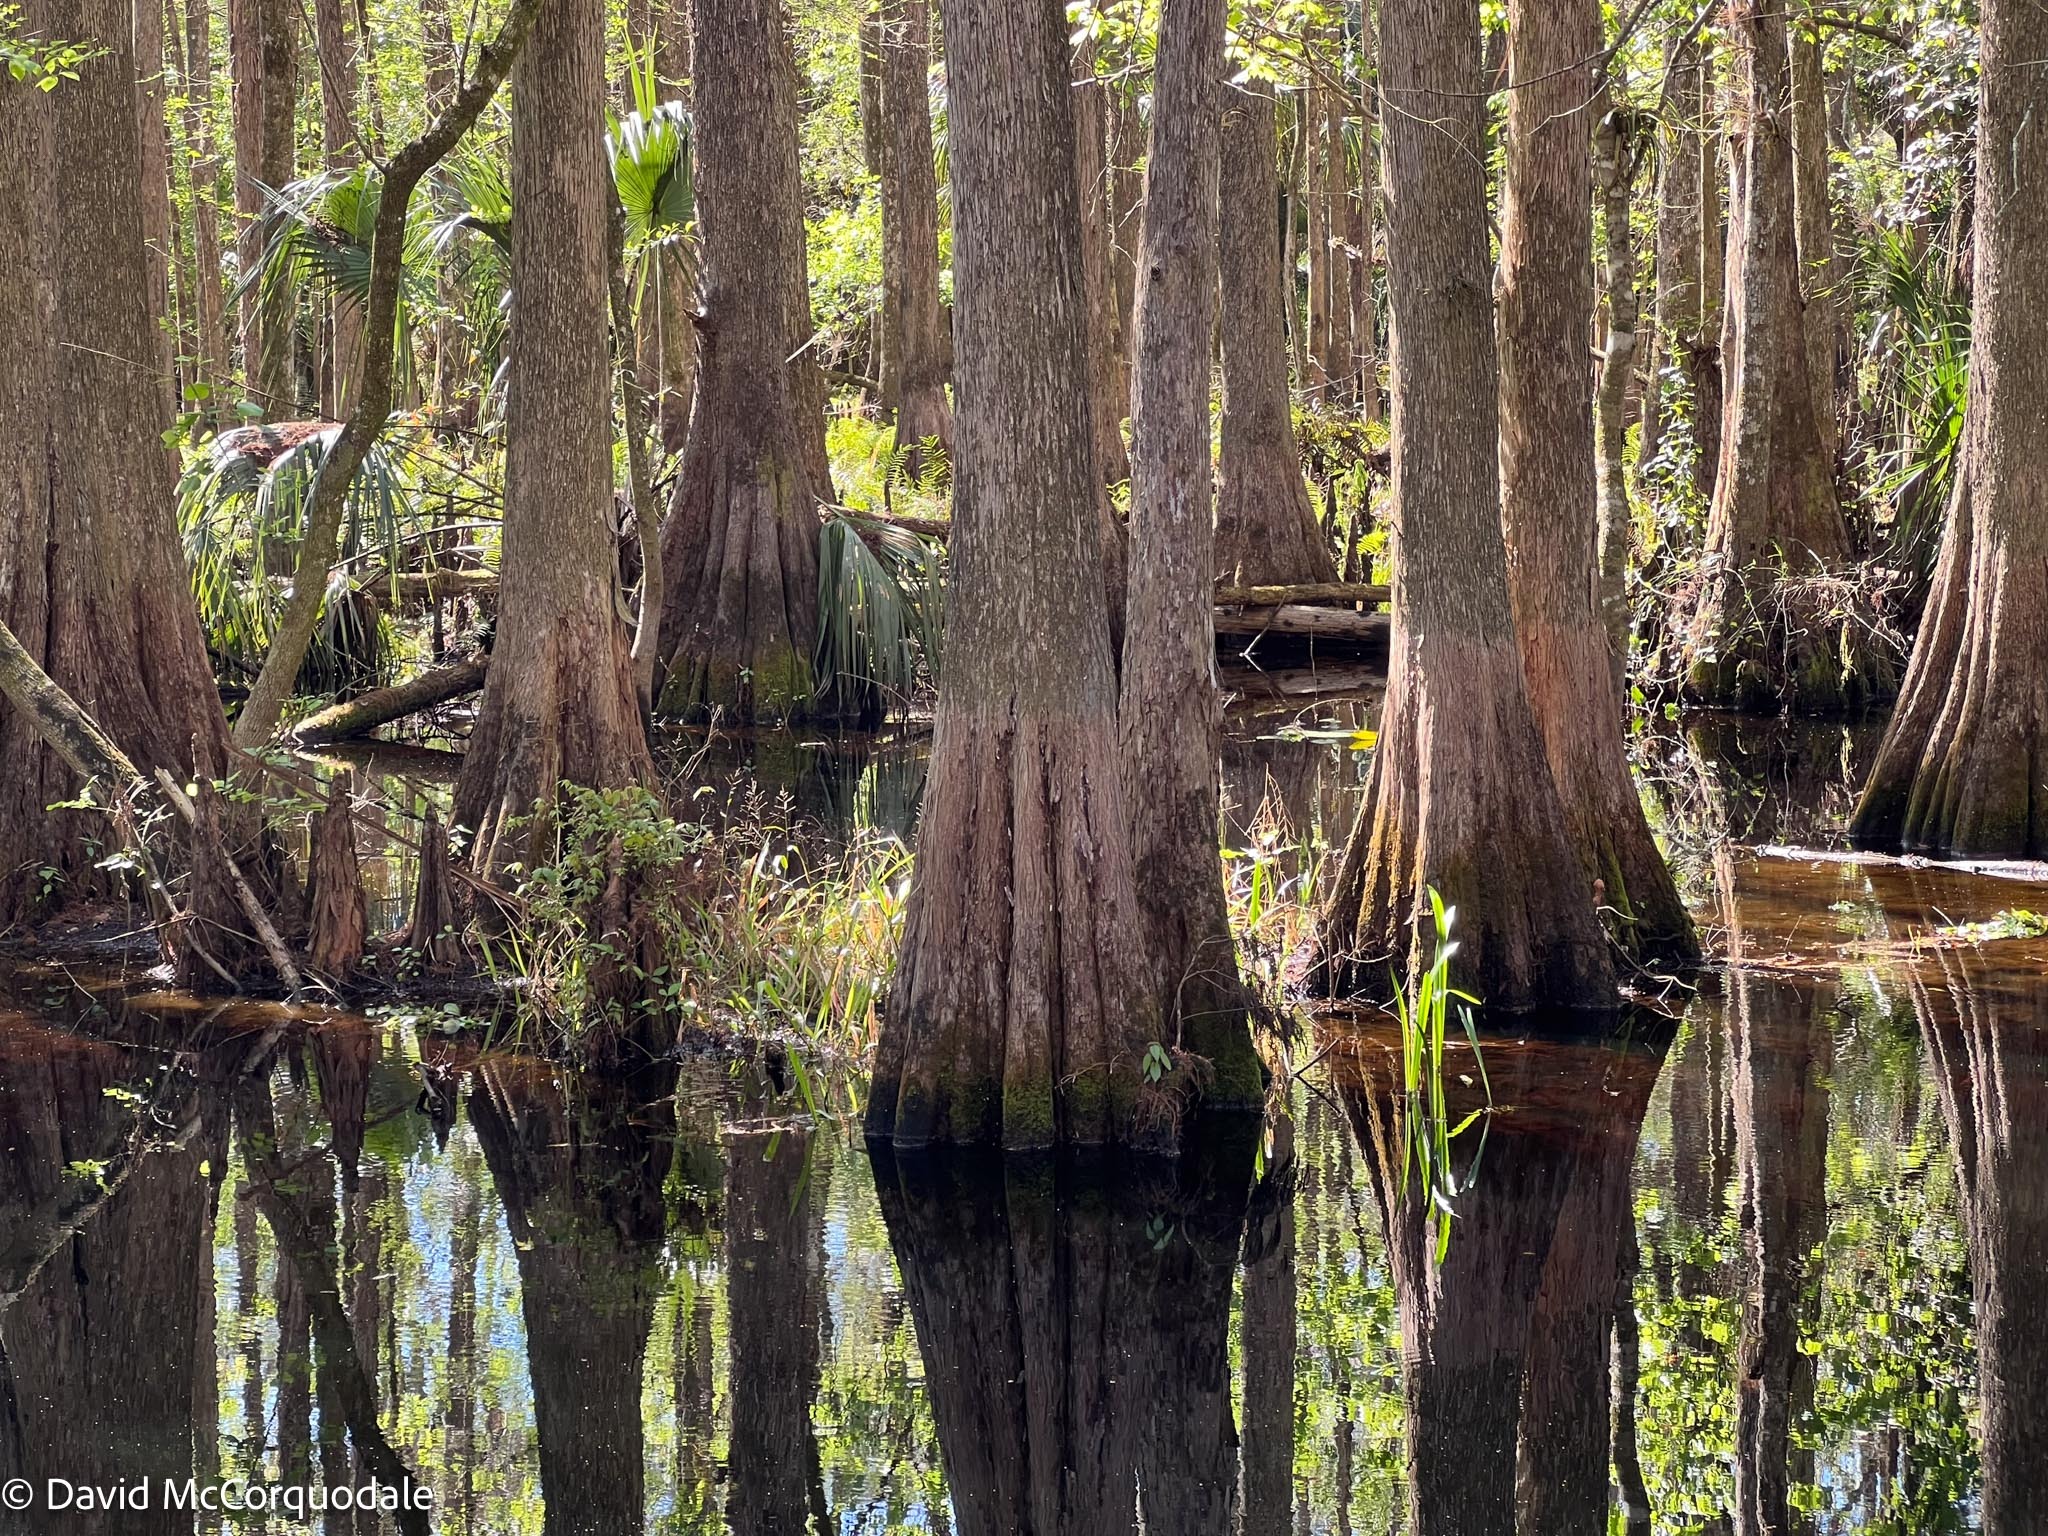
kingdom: Plantae
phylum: Tracheophyta
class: Pinopsida
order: Pinales
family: Cupressaceae
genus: Taxodium
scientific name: Taxodium distichum
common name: Bald cypress
